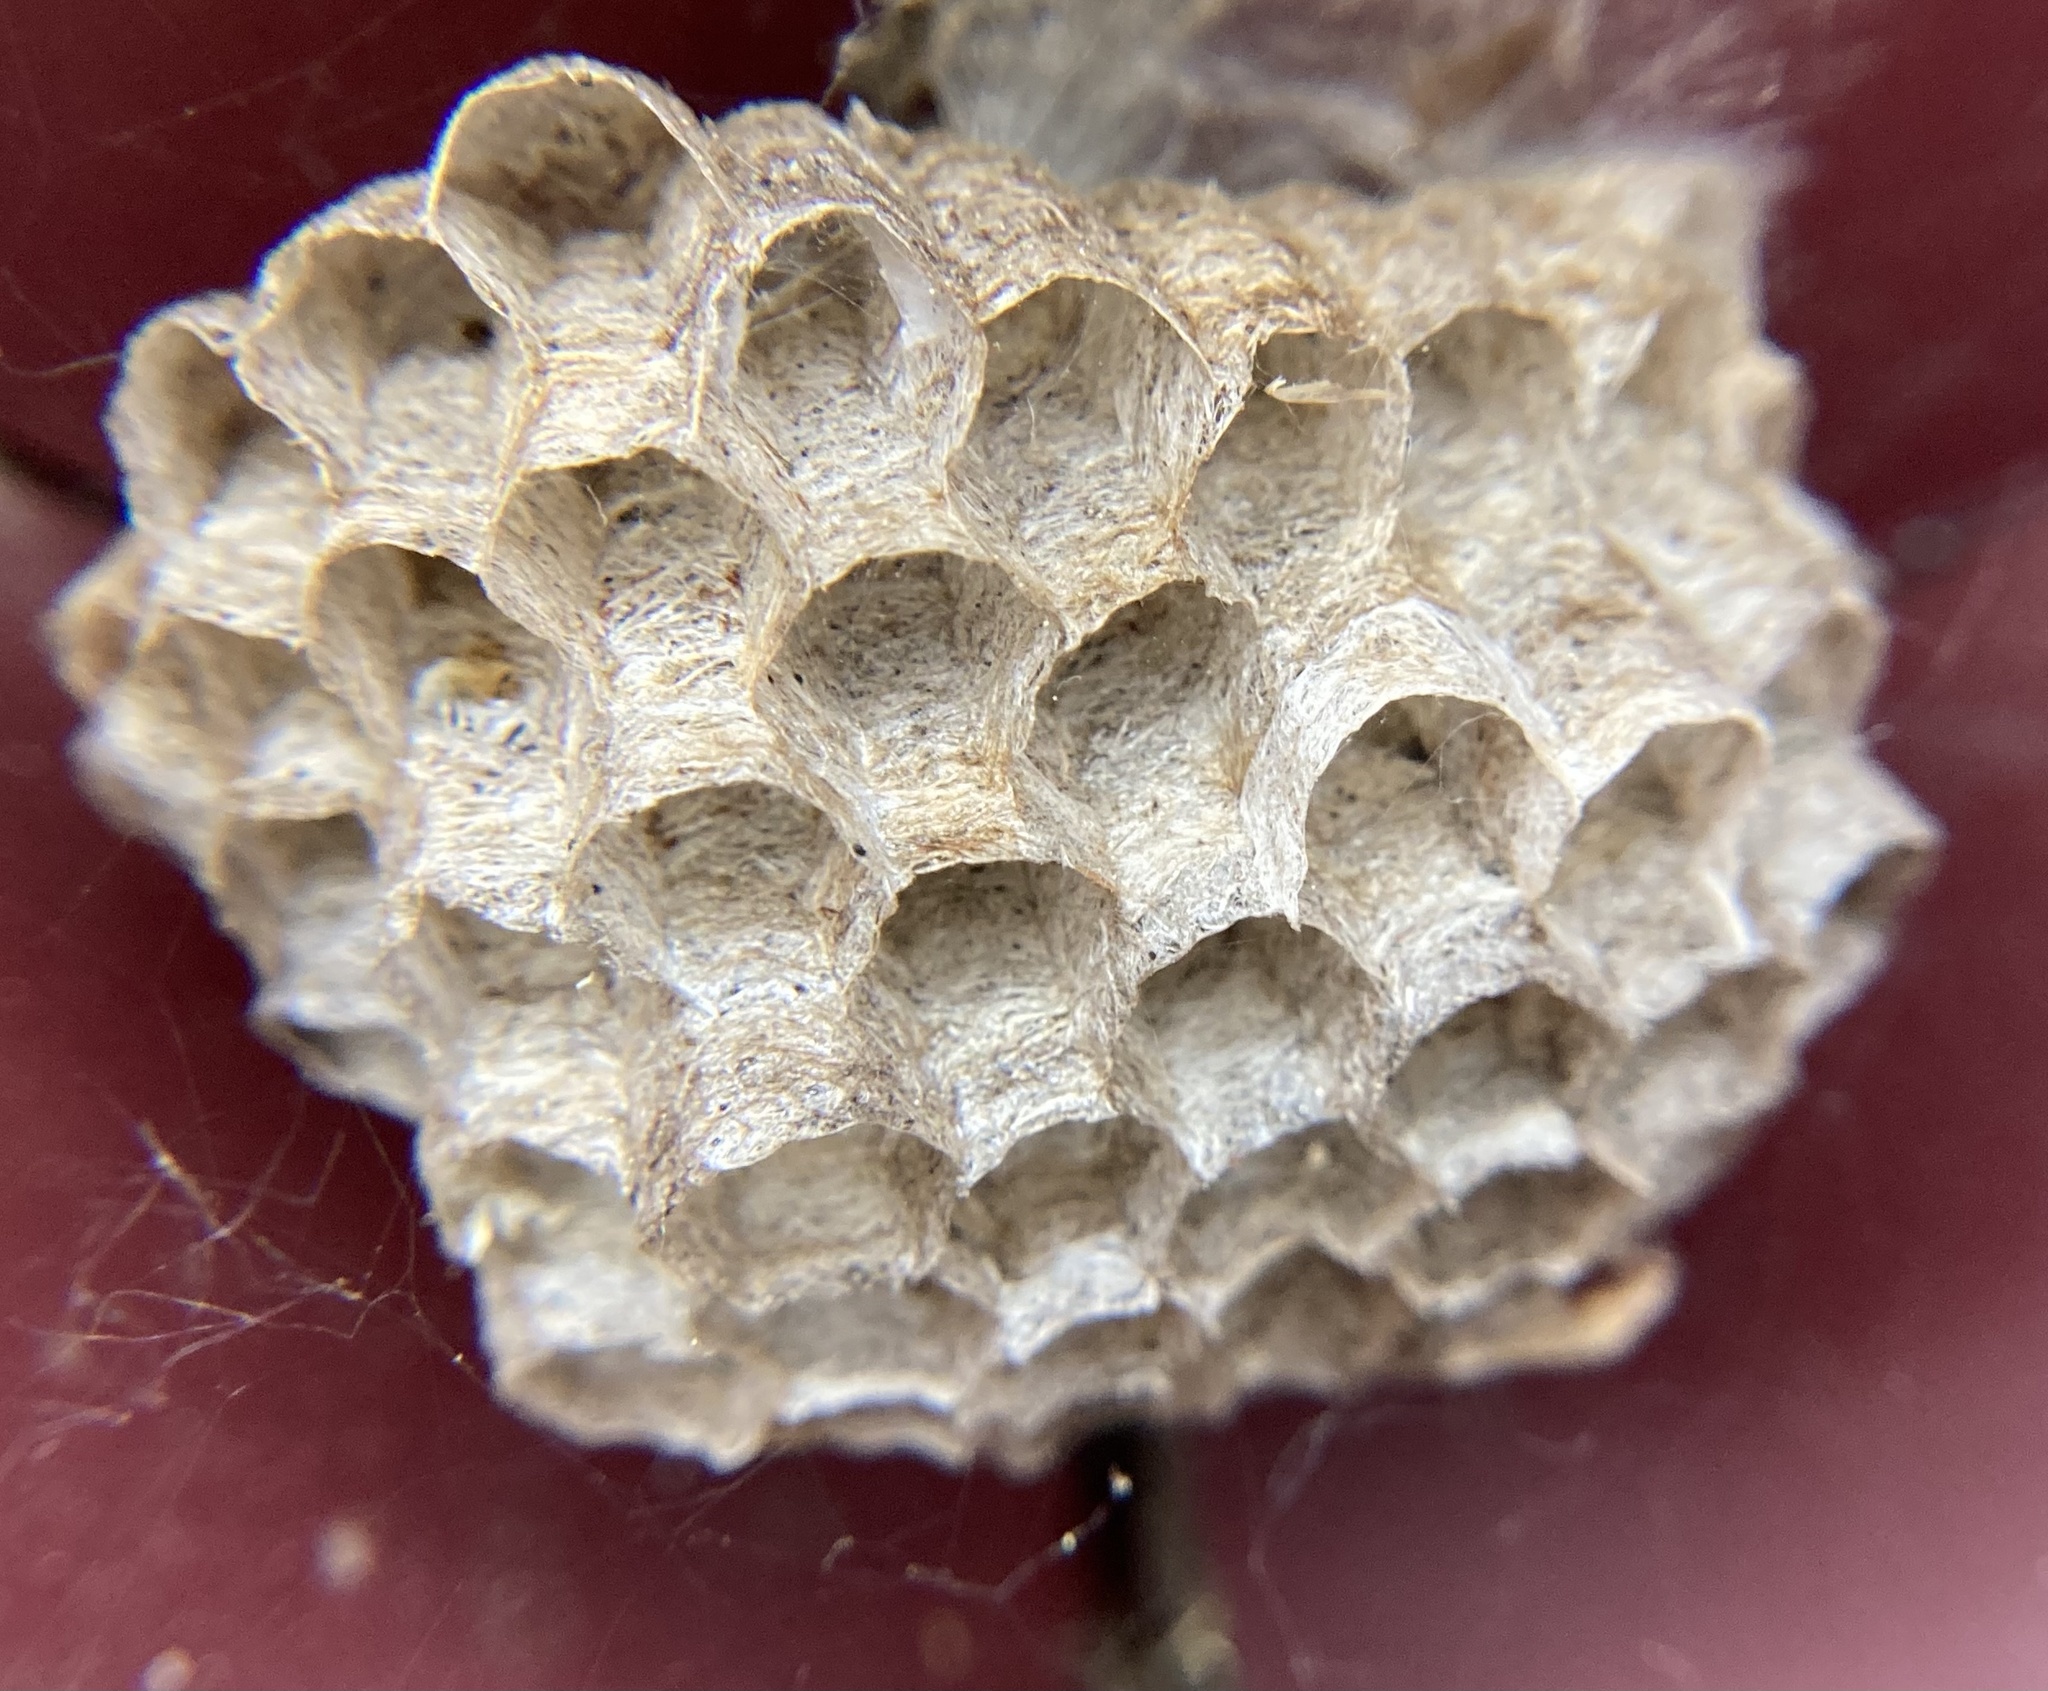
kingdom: Animalia
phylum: Arthropoda
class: Insecta
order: Hymenoptera
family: Eumenidae
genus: Polistes
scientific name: Polistes
